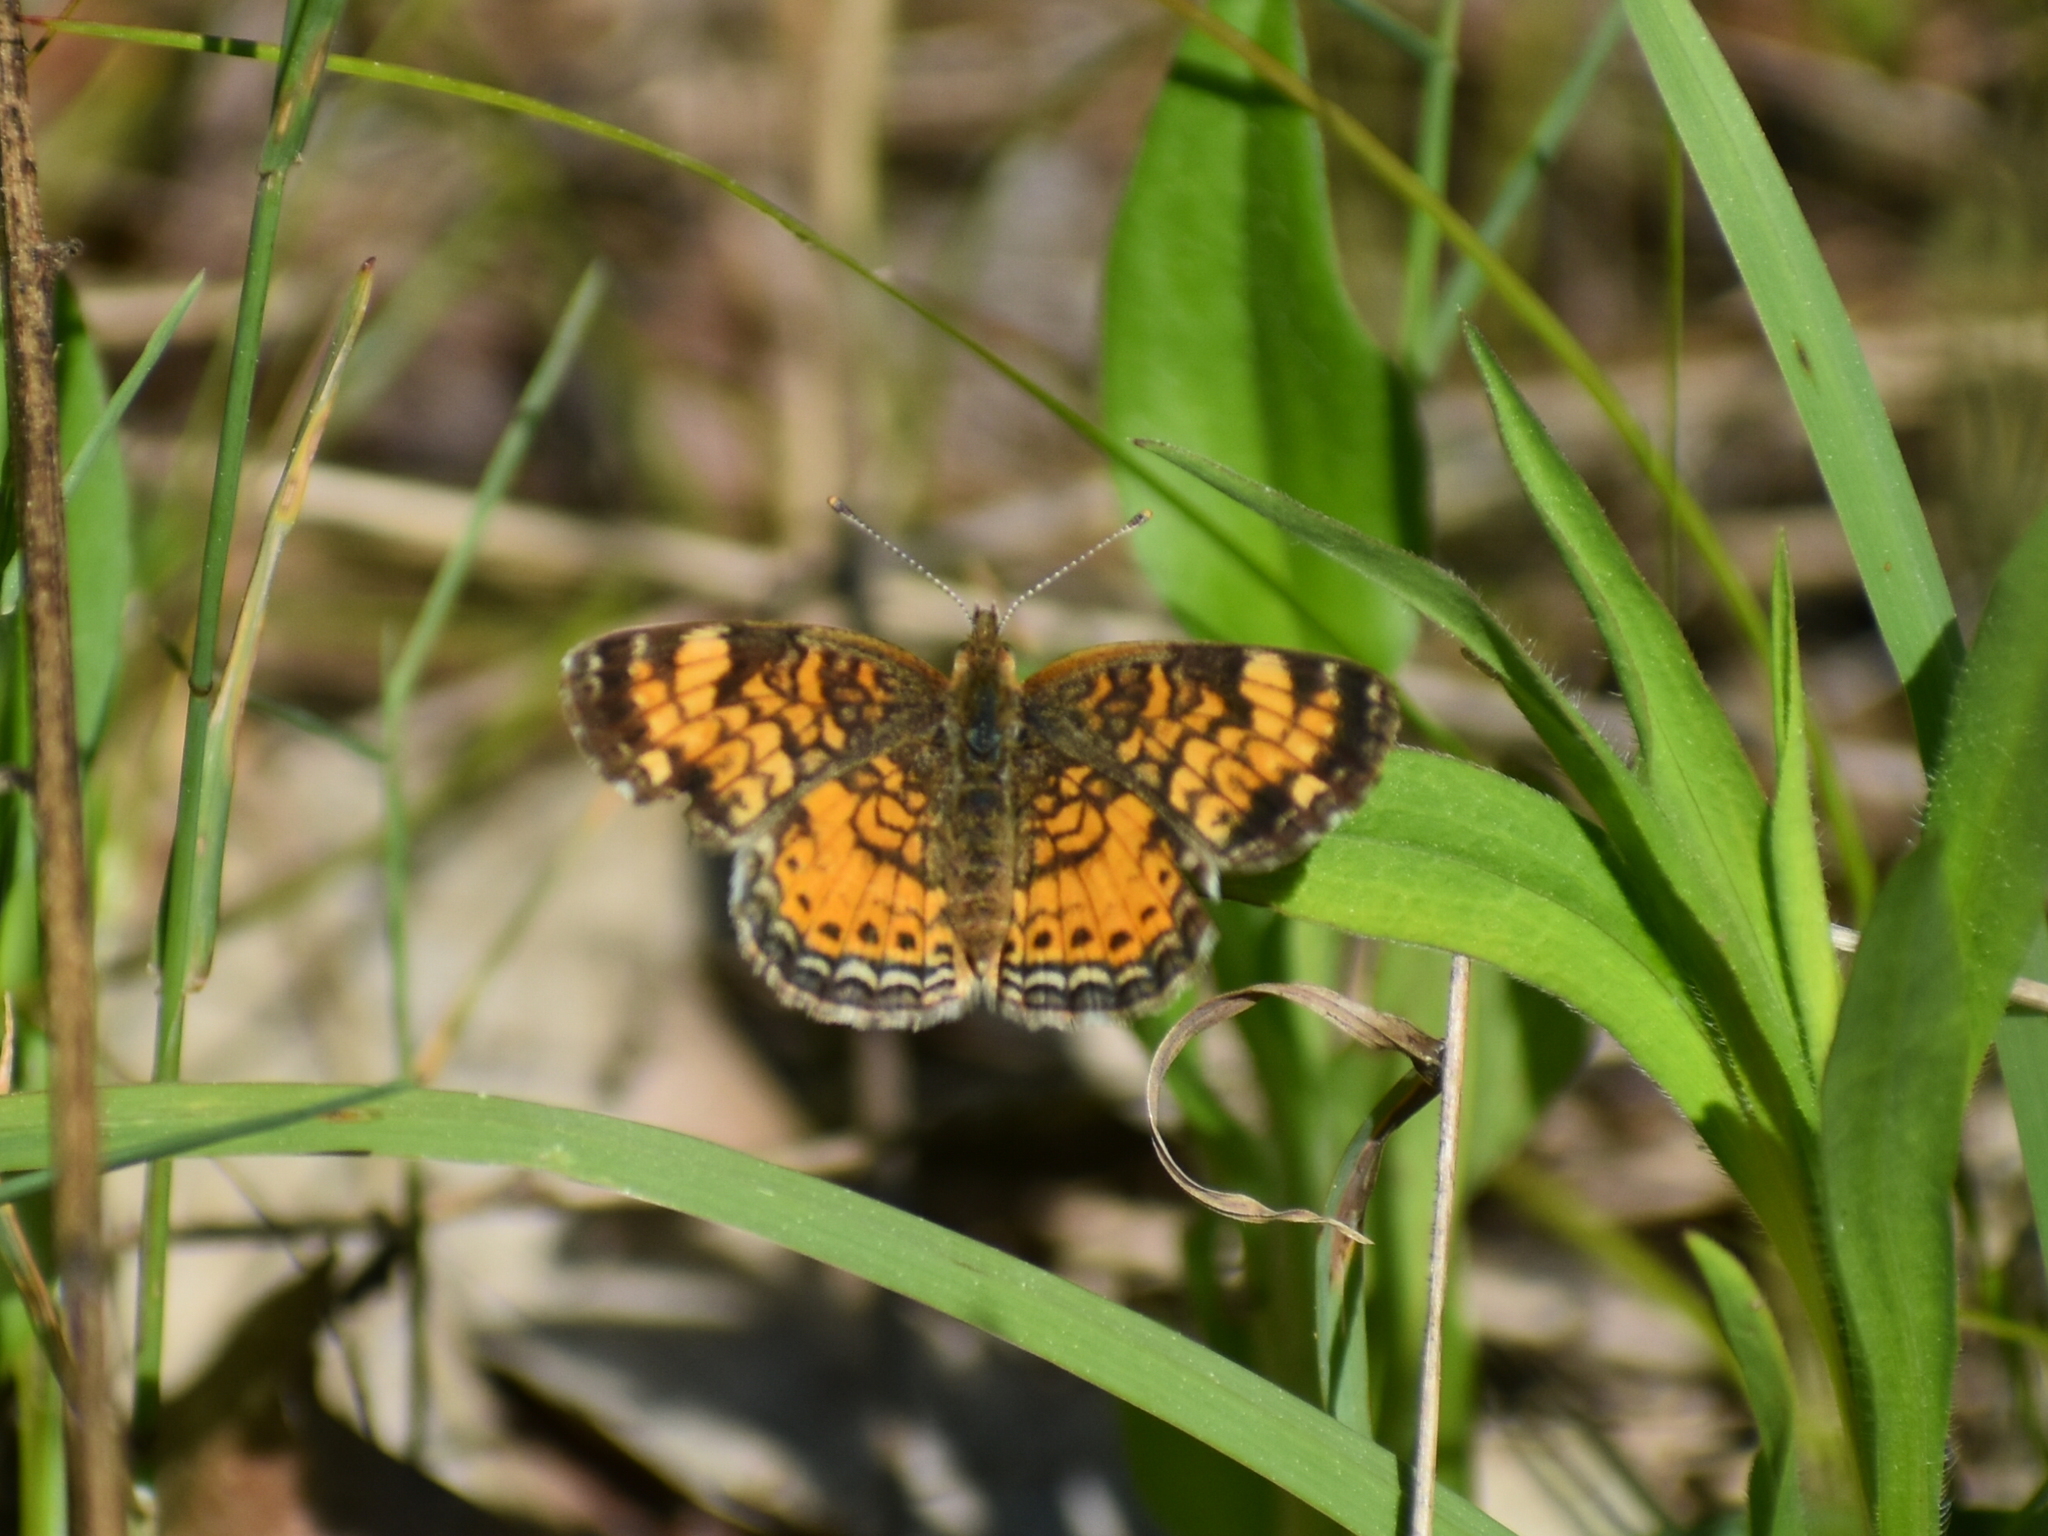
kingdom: Animalia
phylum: Arthropoda
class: Insecta
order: Lepidoptera
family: Nymphalidae
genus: Phyciodes
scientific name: Phyciodes tharos
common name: Pearl crescent
